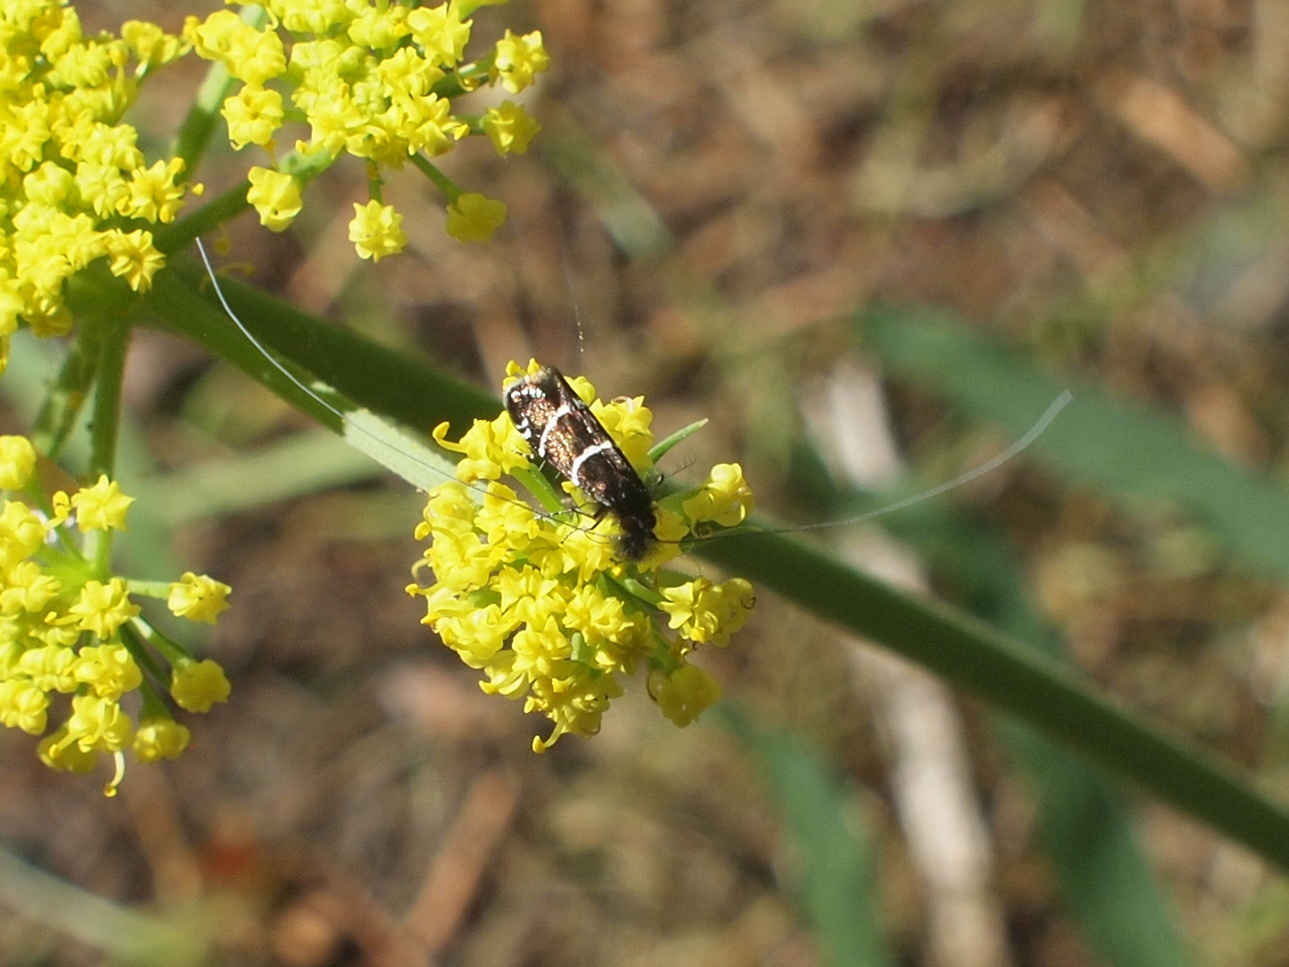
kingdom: Animalia
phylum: Arthropoda
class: Insecta
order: Lepidoptera
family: Adelidae
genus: Adela
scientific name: Adela septentrionella
